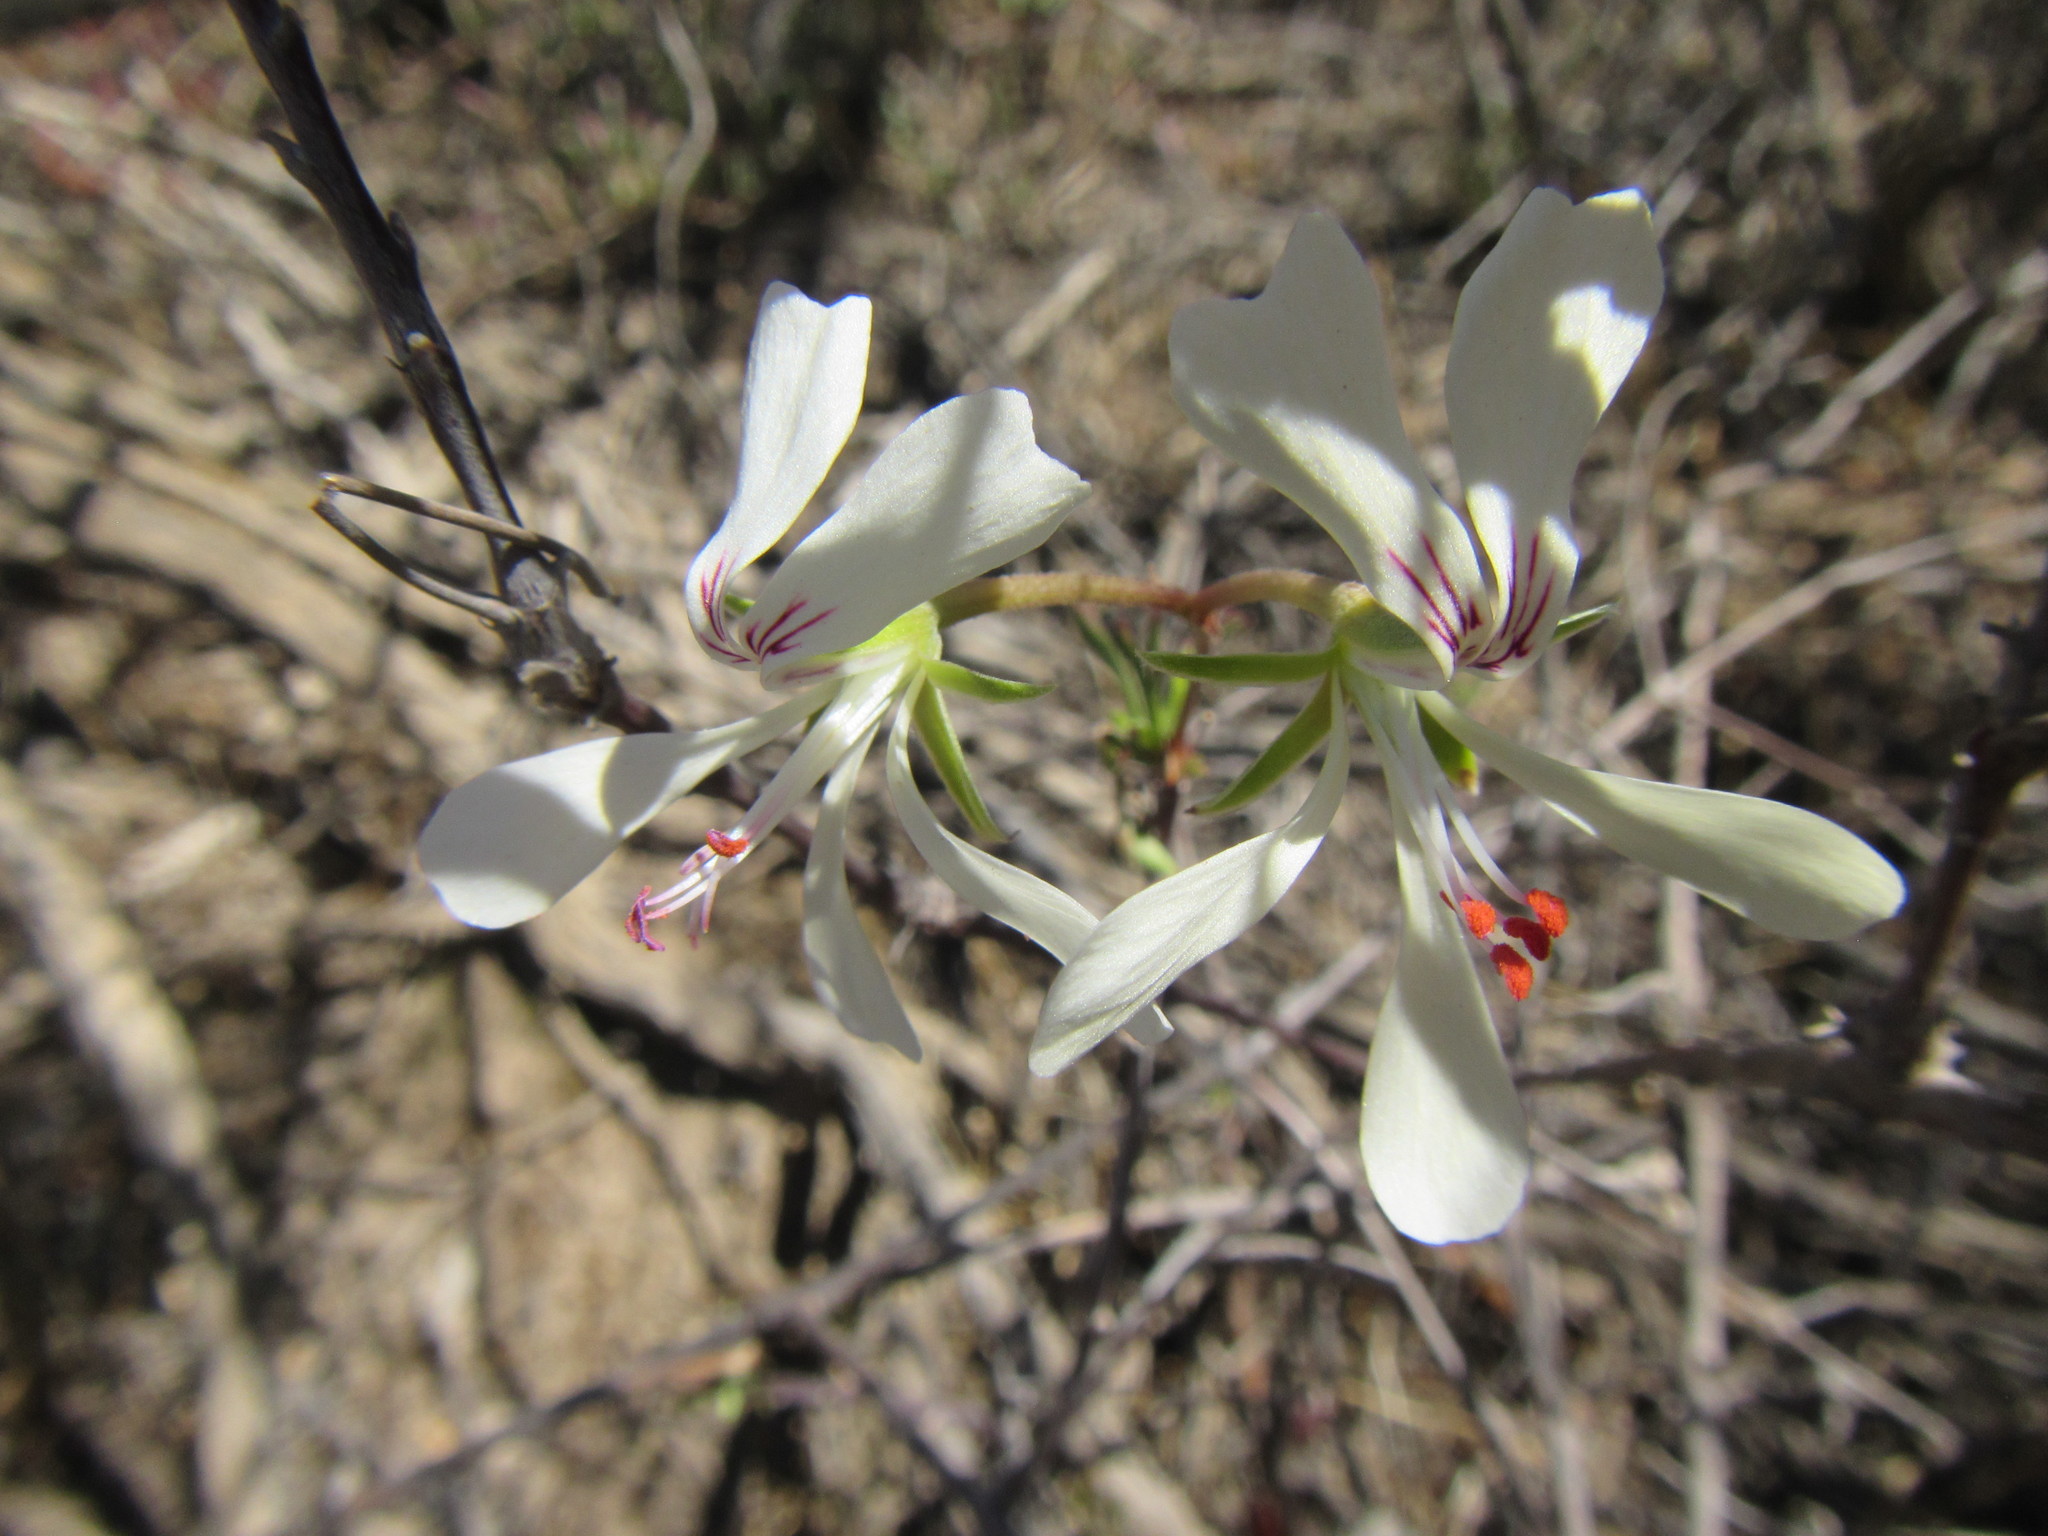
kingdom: Plantae
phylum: Tracheophyta
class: Magnoliopsida
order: Geraniales
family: Geraniaceae
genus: Pelargonium
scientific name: Pelargonium karooicum
